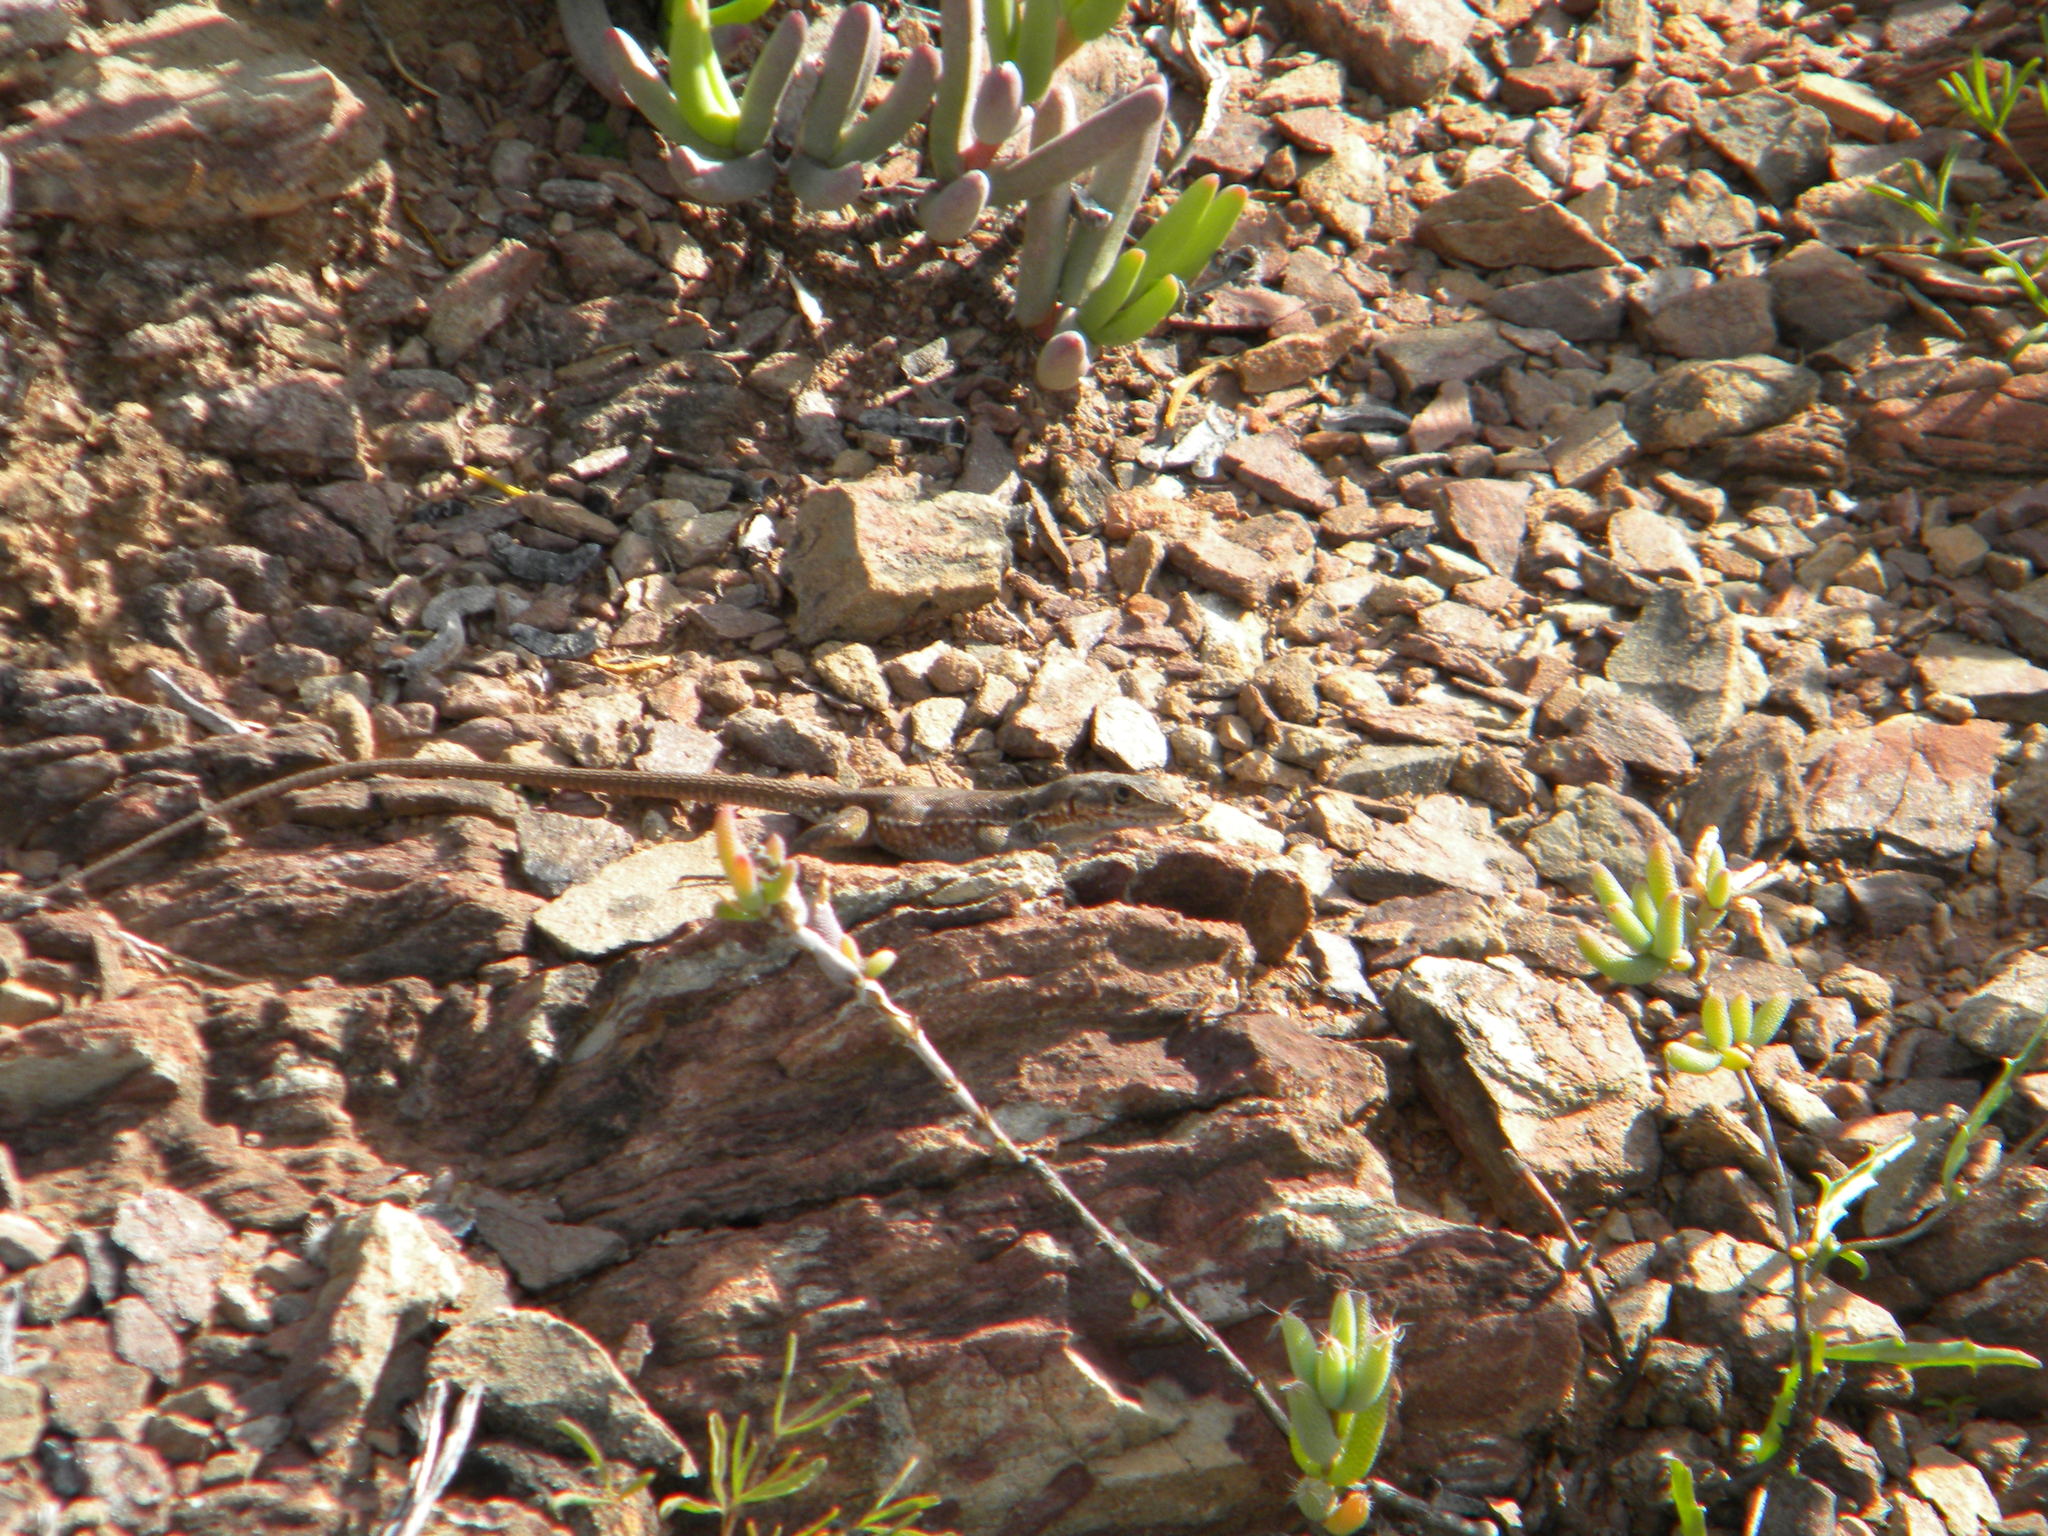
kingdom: Animalia
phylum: Chordata
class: Squamata
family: Lacertidae
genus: Pedioplanis
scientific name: Pedioplanis lineoocellata
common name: Spotted sand lizard
